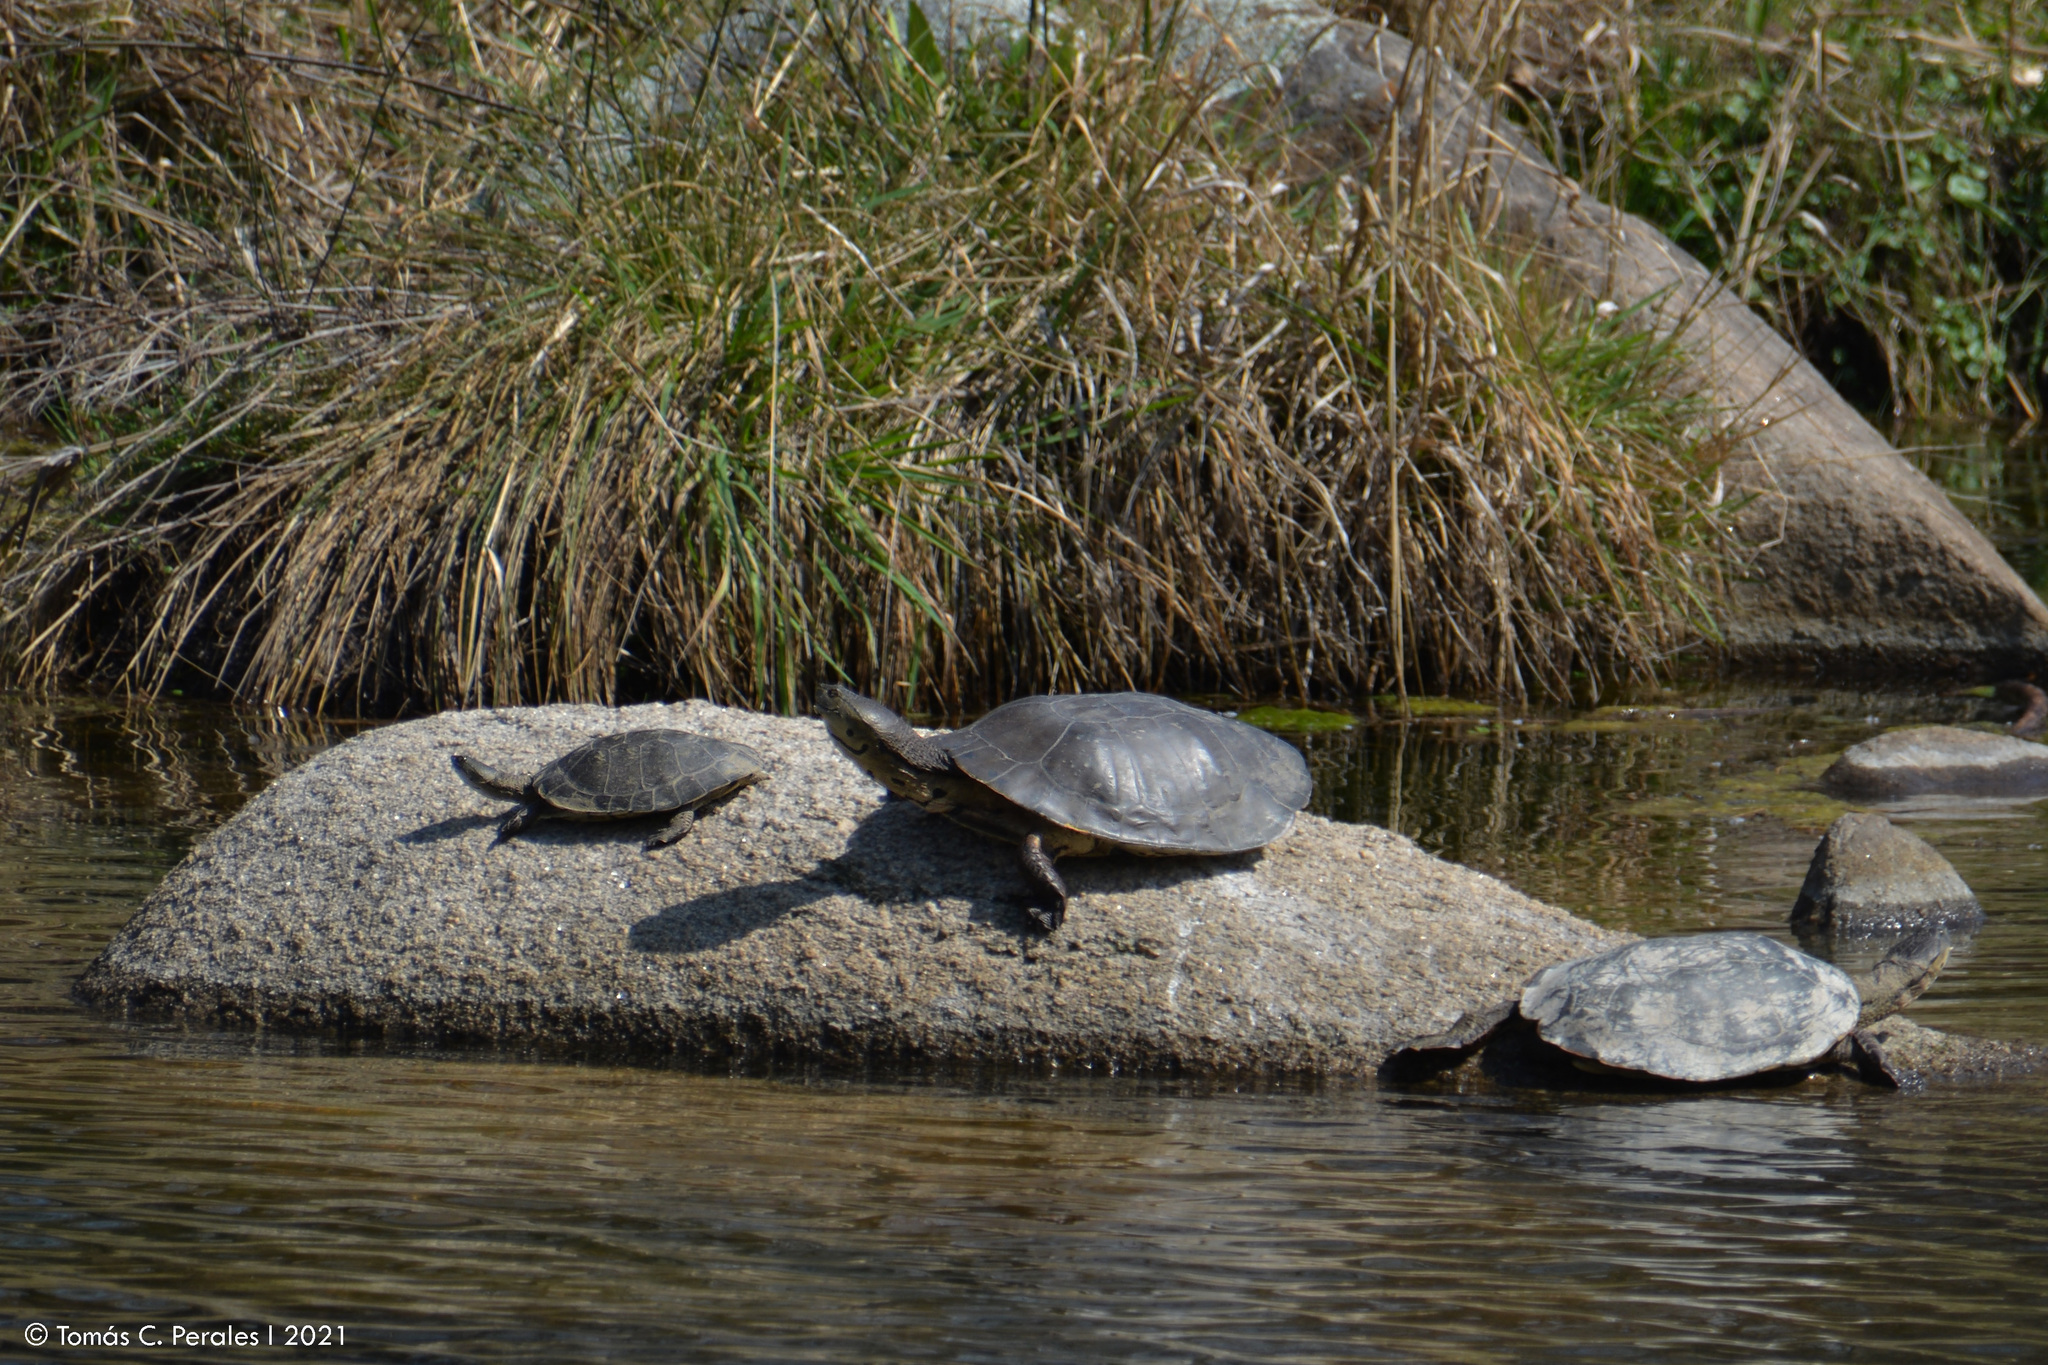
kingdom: Animalia
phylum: Chordata
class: Testudines
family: Chelidae
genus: Phrynops
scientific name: Phrynops hilarii
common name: Side-necked turtle of saint hillaire
